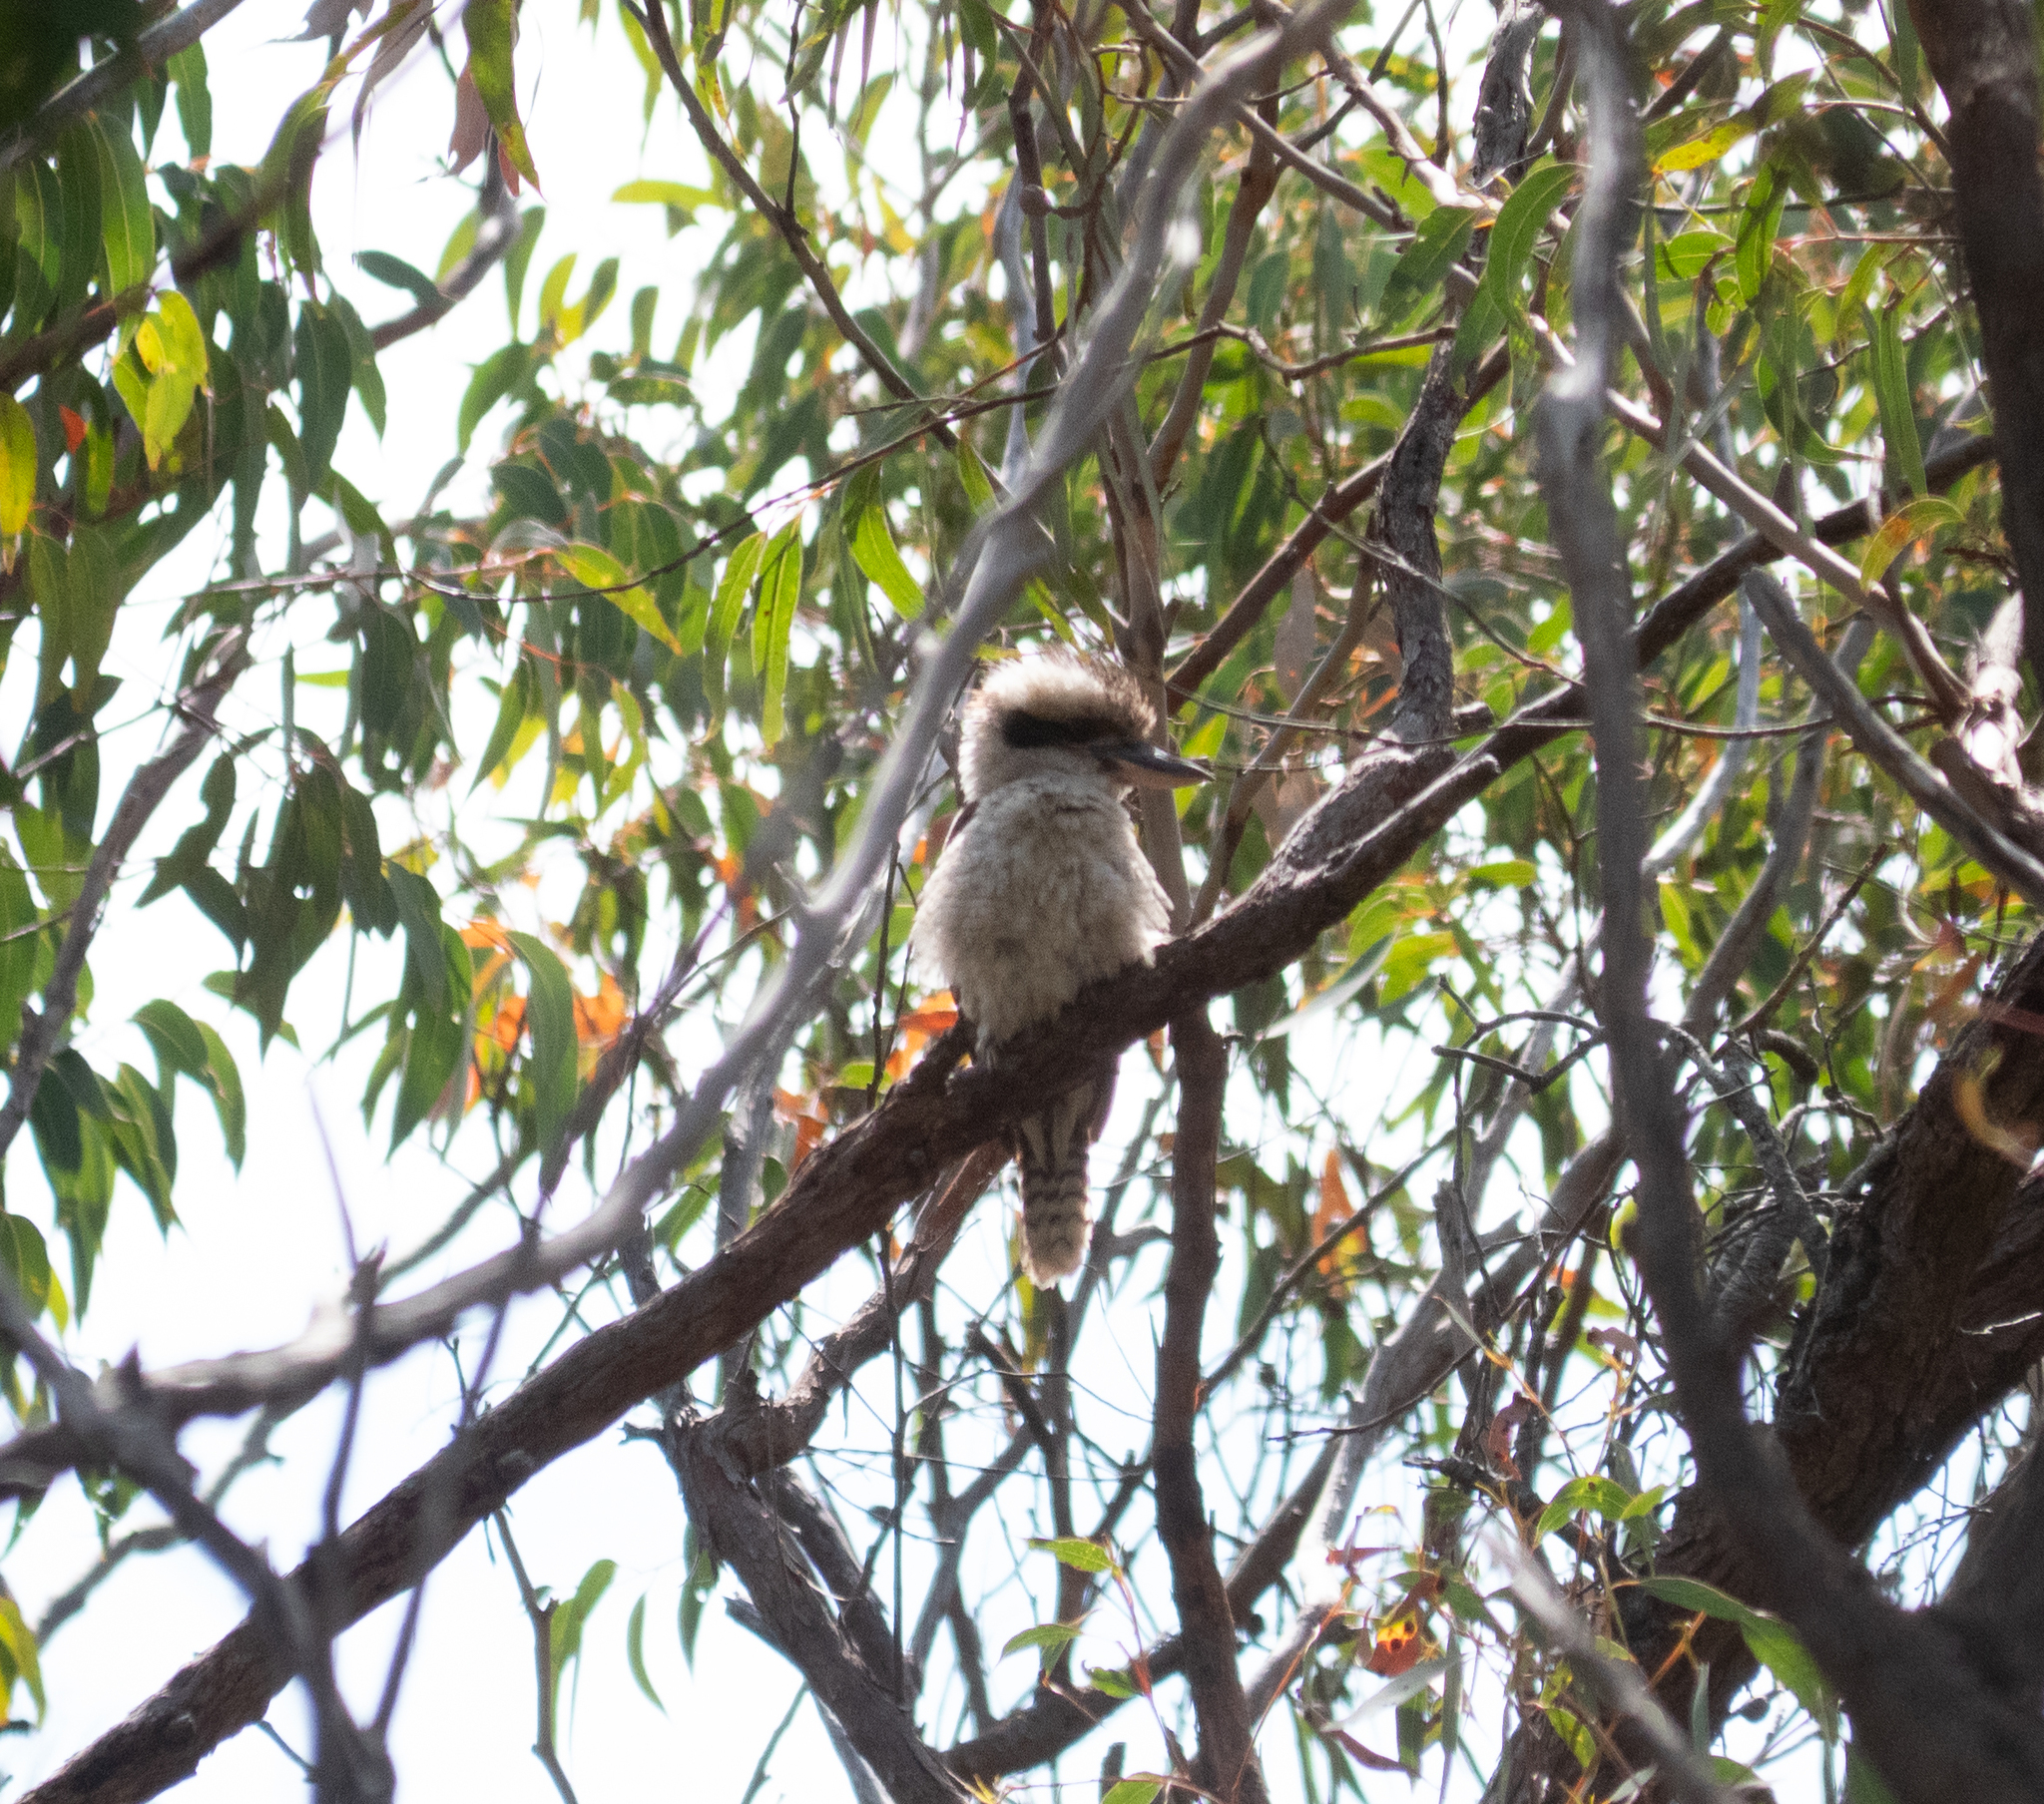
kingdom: Animalia
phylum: Chordata
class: Aves
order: Coraciiformes
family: Alcedinidae
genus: Dacelo
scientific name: Dacelo novaeguineae
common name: Laughing kookaburra
